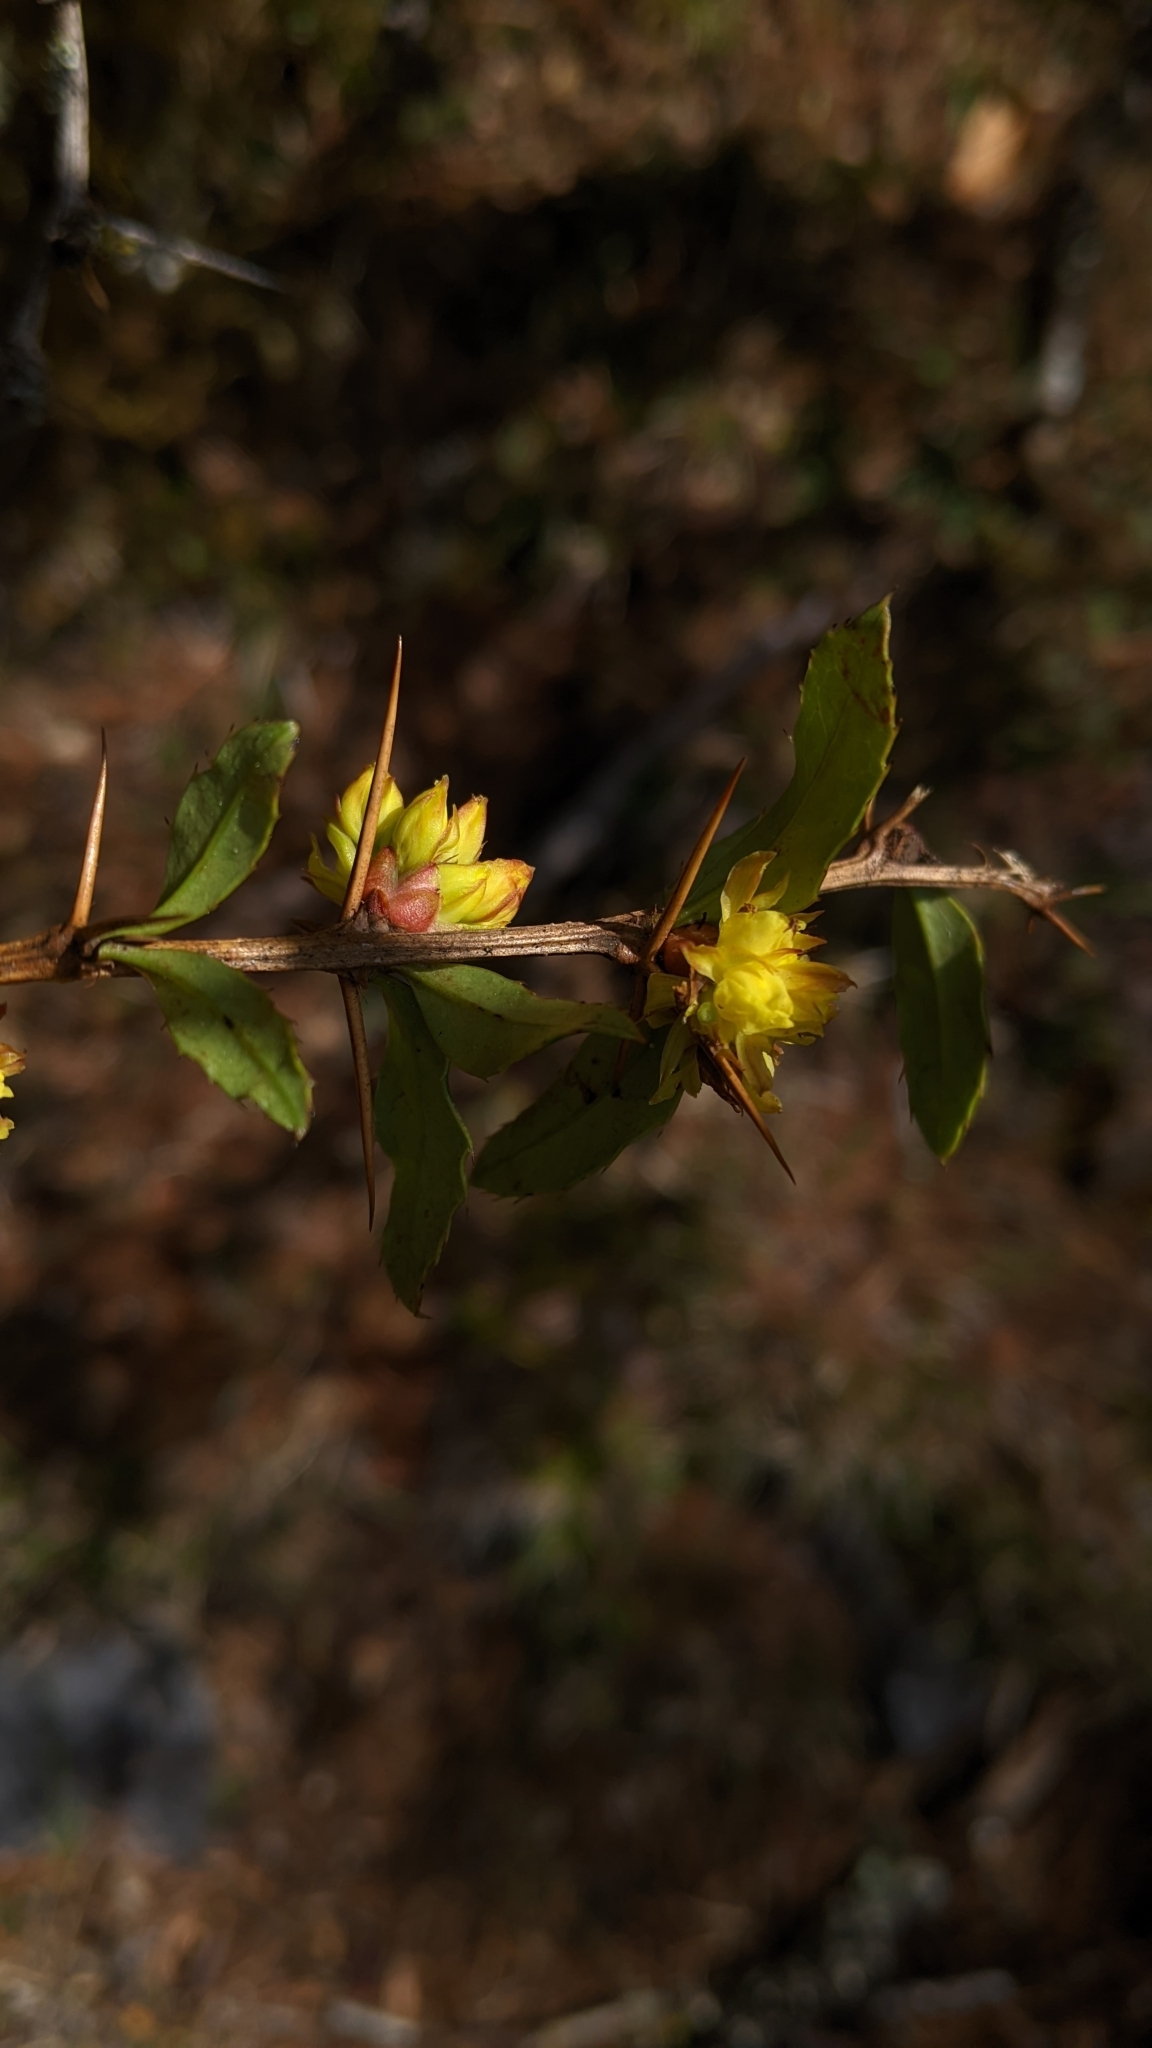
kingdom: Plantae
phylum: Tracheophyta
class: Magnoliopsida
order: Ranunculales
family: Berberidaceae
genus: Berberis
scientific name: Berberis kawakamii
